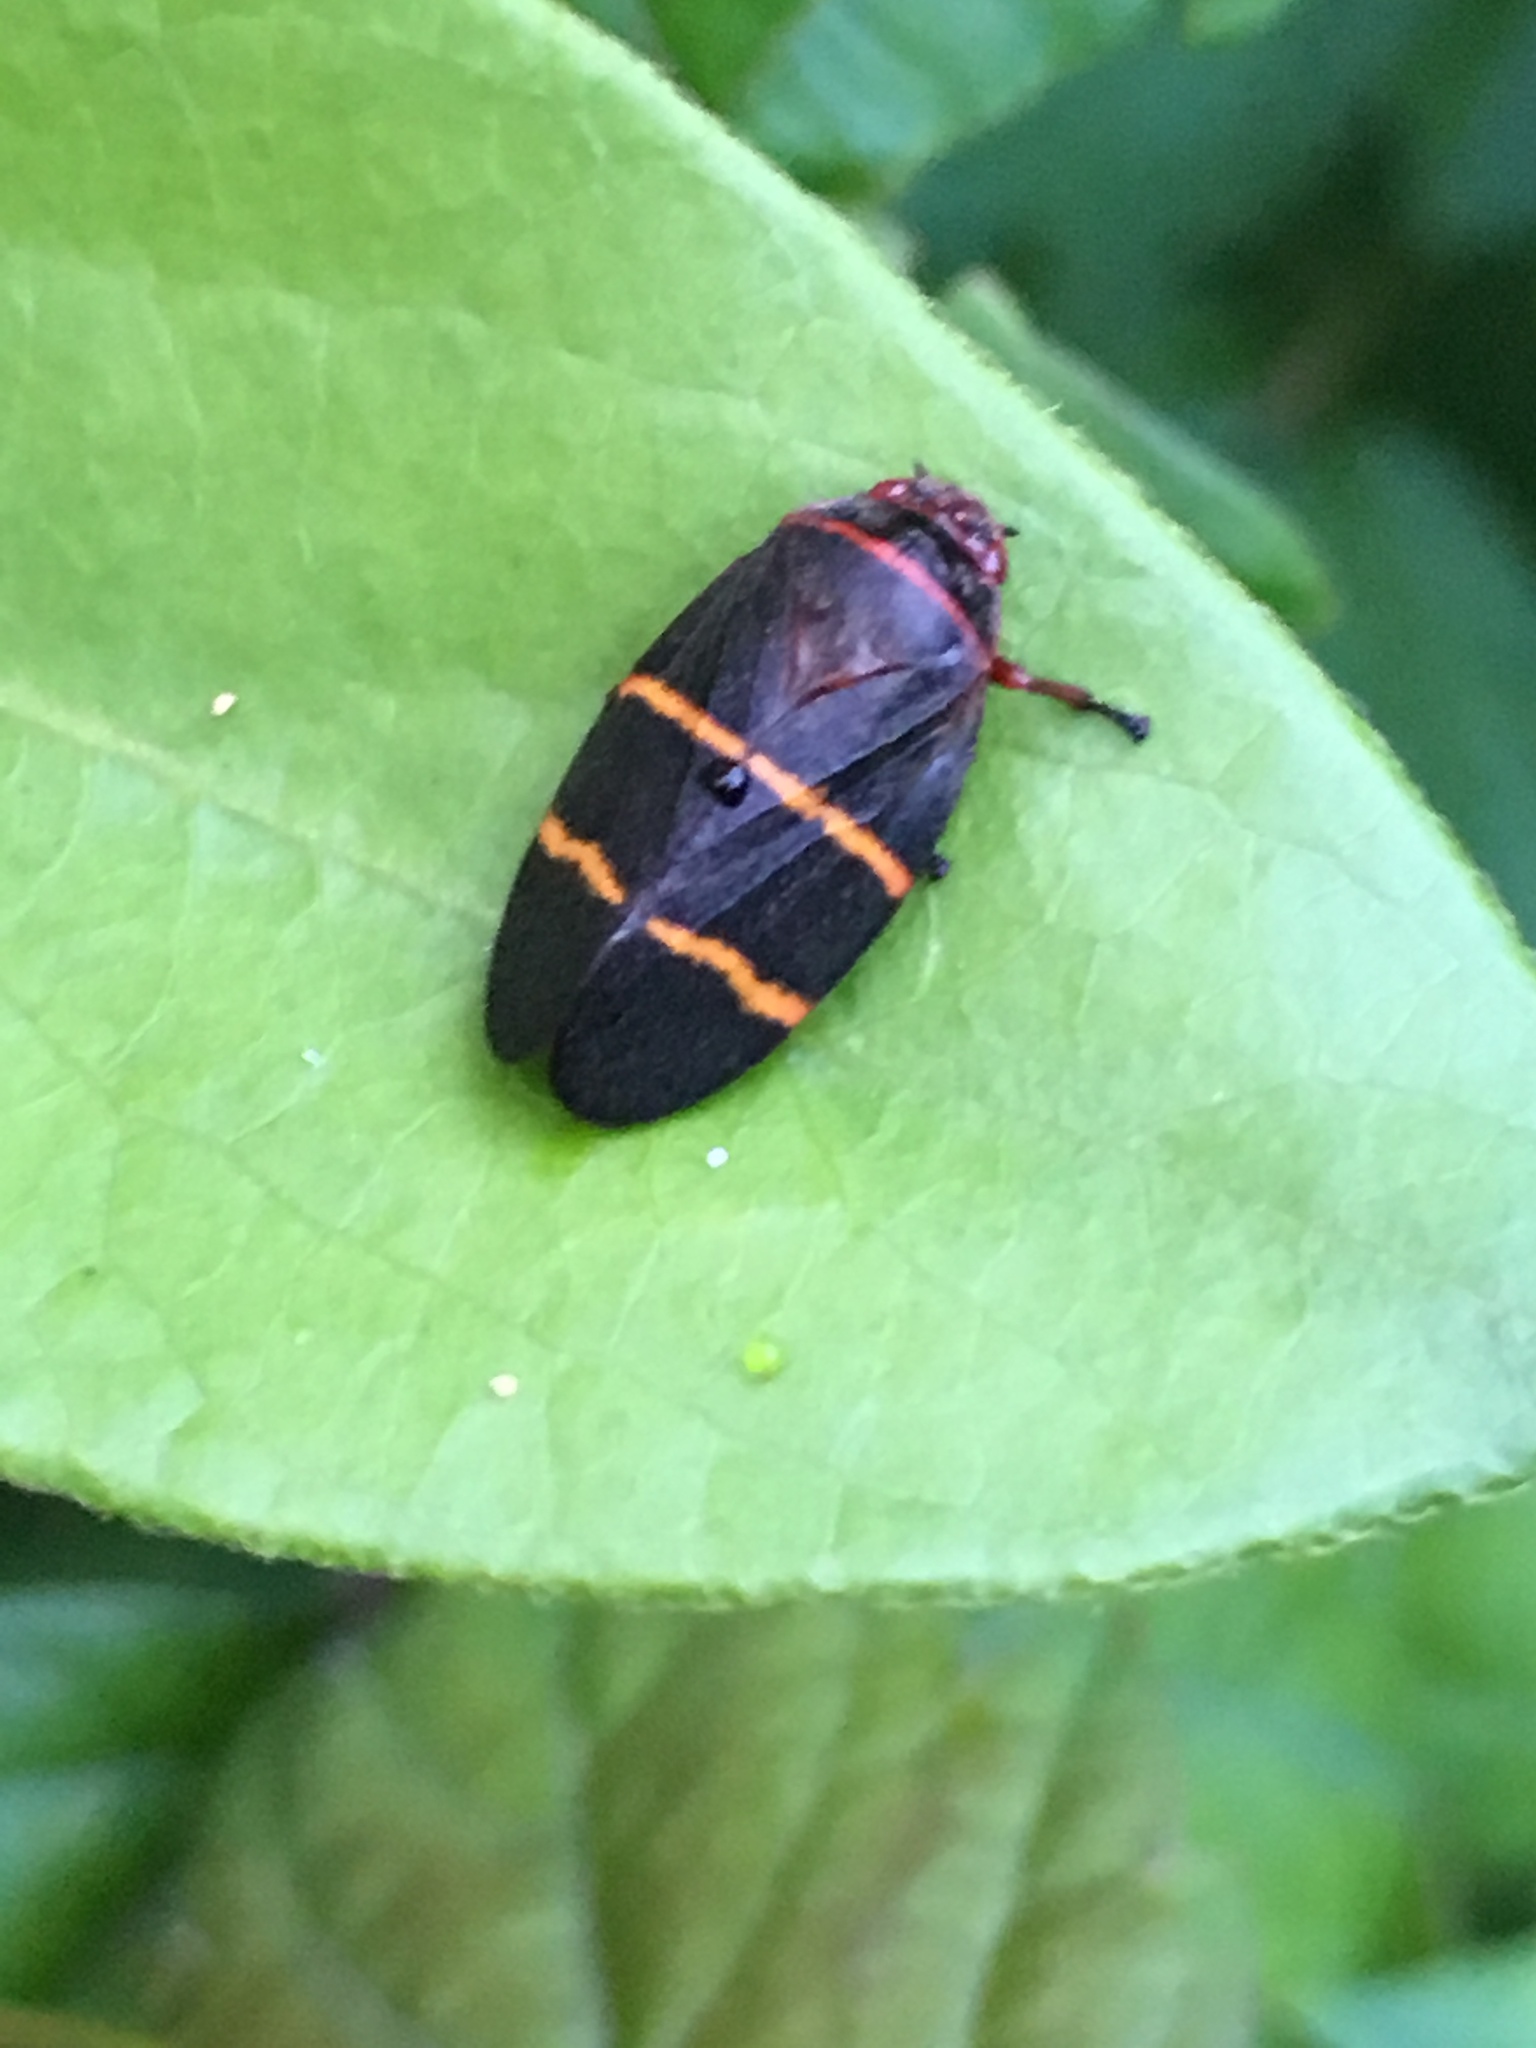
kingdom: Animalia
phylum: Arthropoda
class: Insecta
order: Hemiptera
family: Cercopidae
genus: Prosapia
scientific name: Prosapia bicincta
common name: Twolined spittlebug
